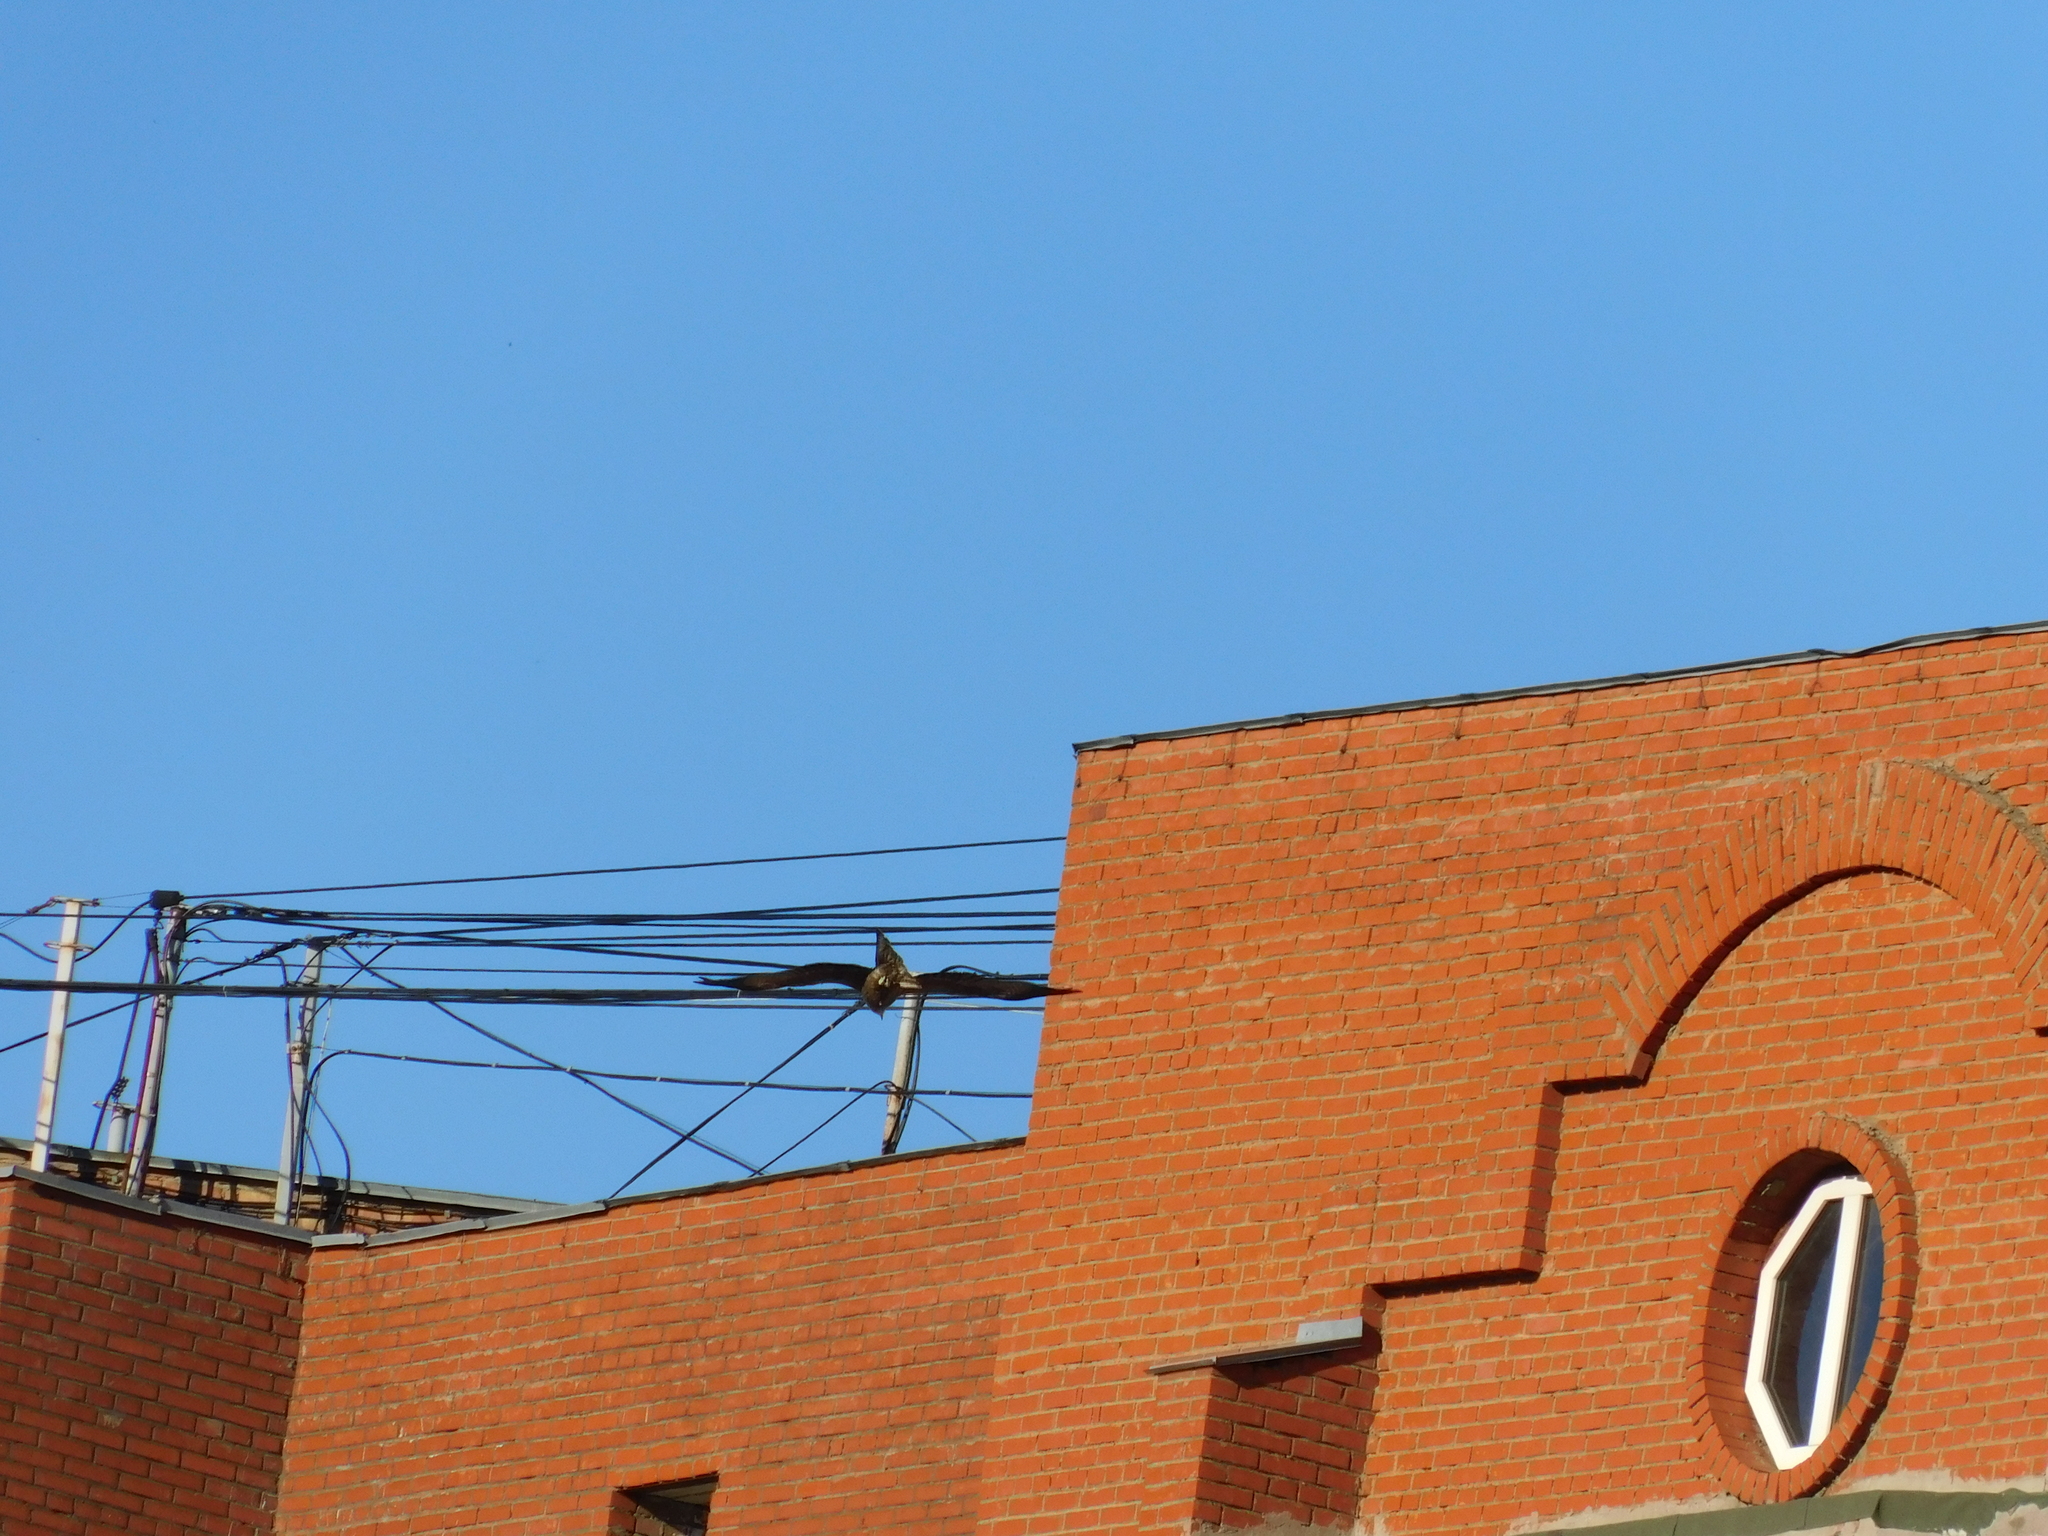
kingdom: Animalia
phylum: Chordata
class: Aves
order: Accipitriformes
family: Accipitridae
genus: Milvus
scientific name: Milvus migrans
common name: Black kite
